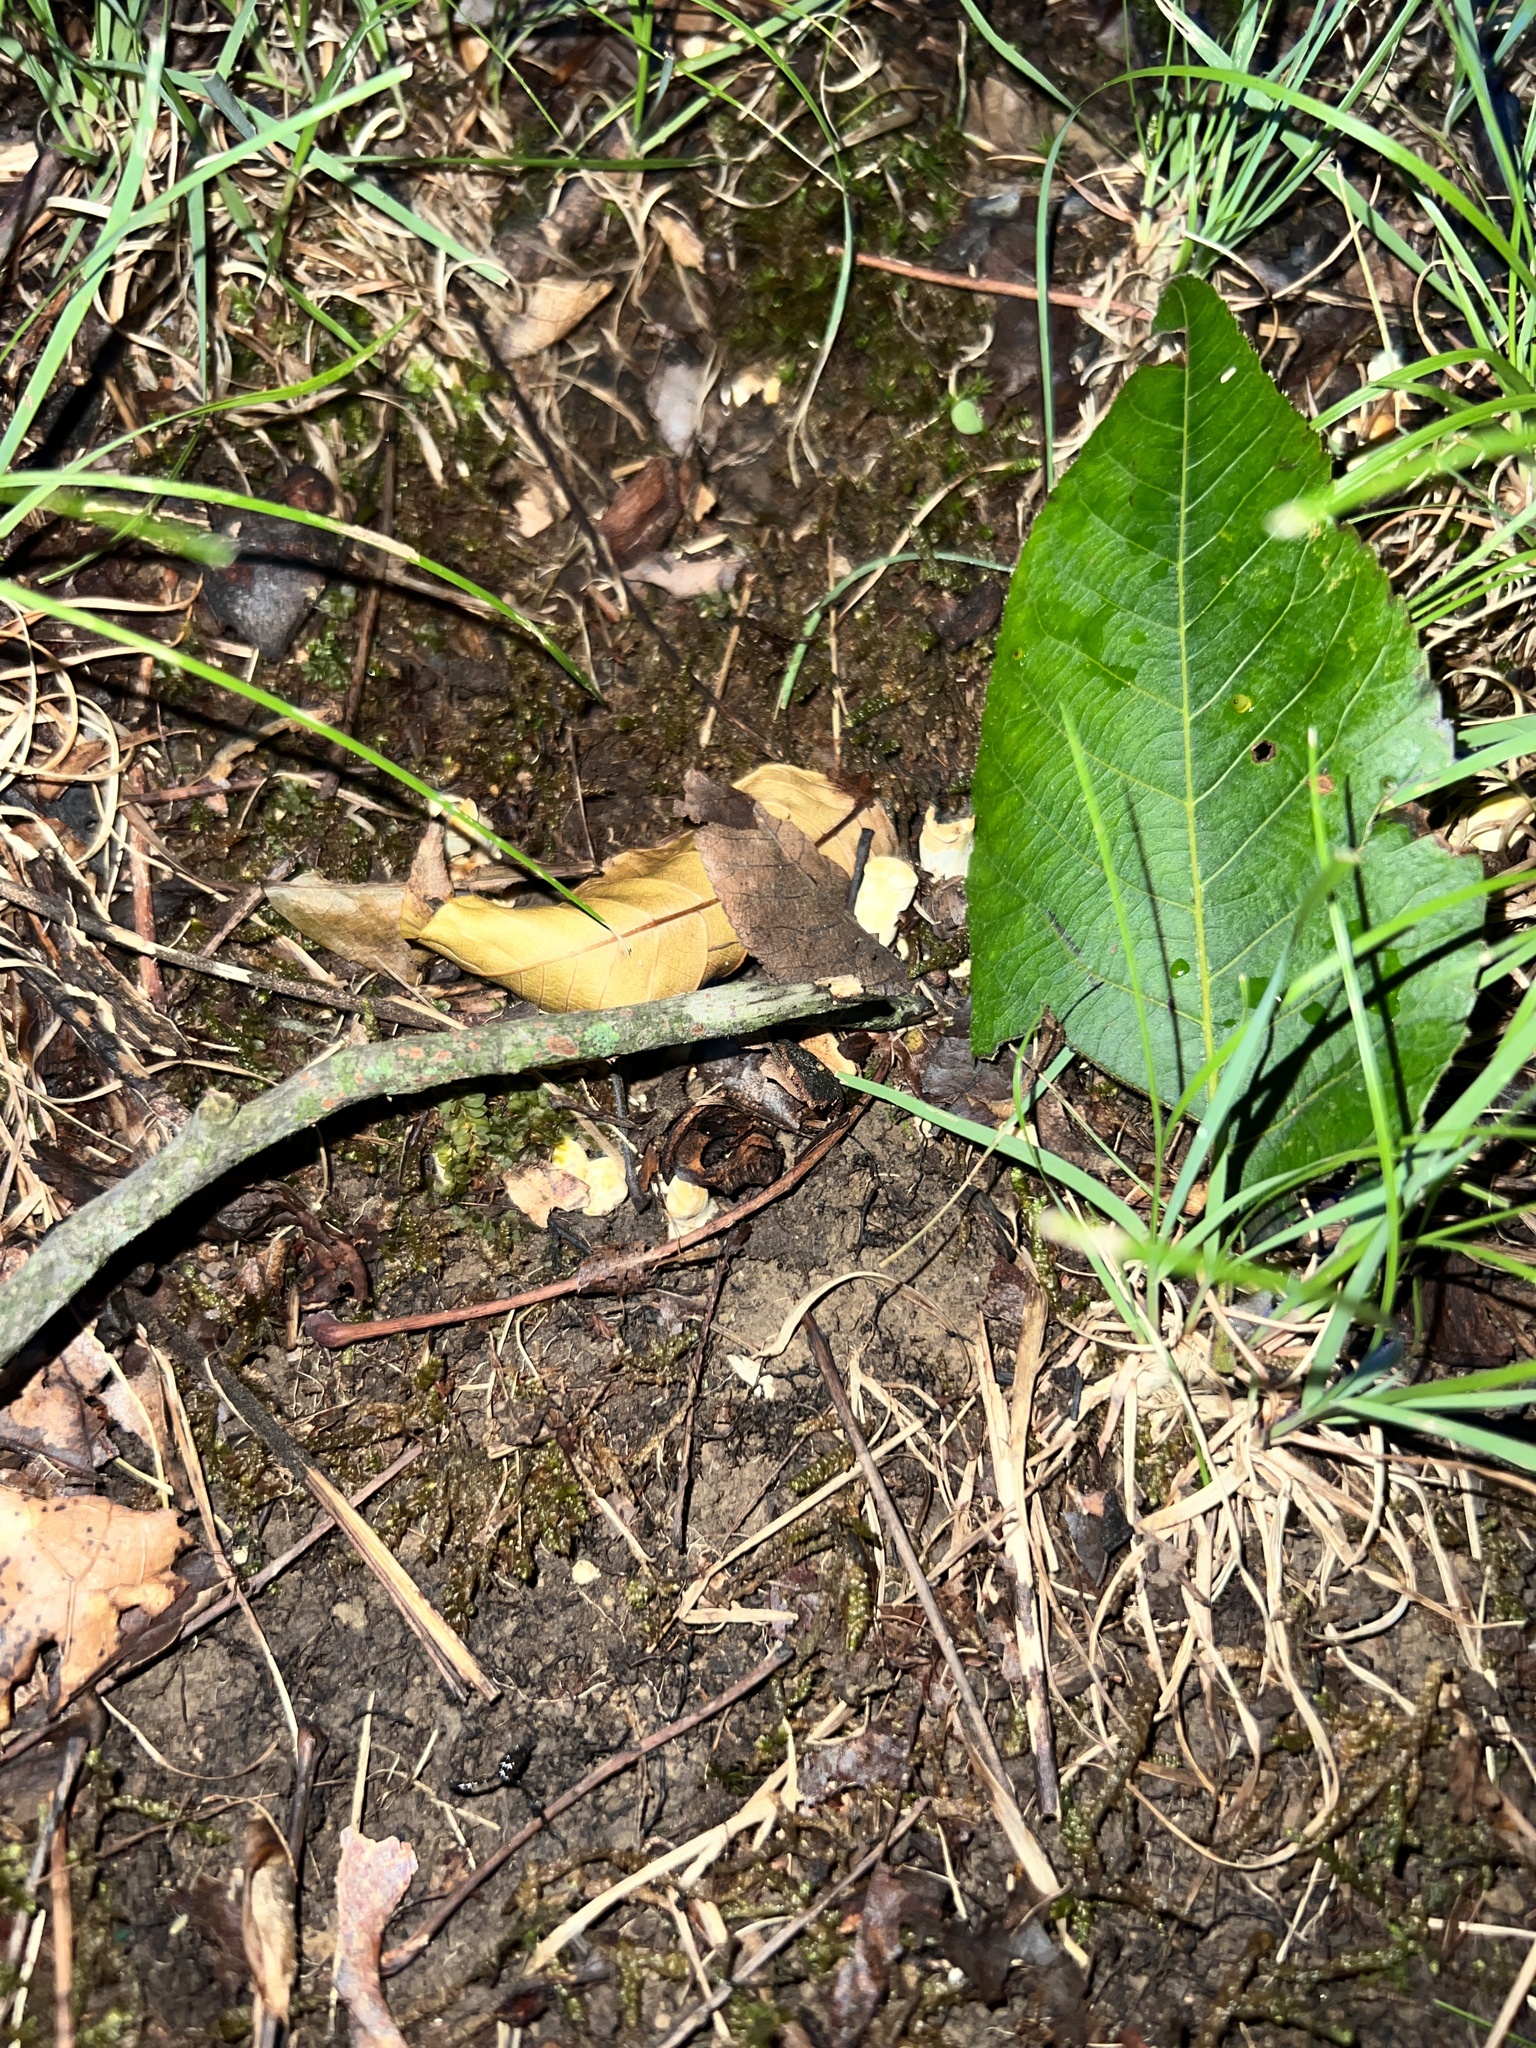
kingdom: Fungi
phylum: Basidiomycota
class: Agaricomycetes
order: Cantharellales
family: Hydnaceae
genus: Cantharellus
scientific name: Cantharellus flavolateritius
